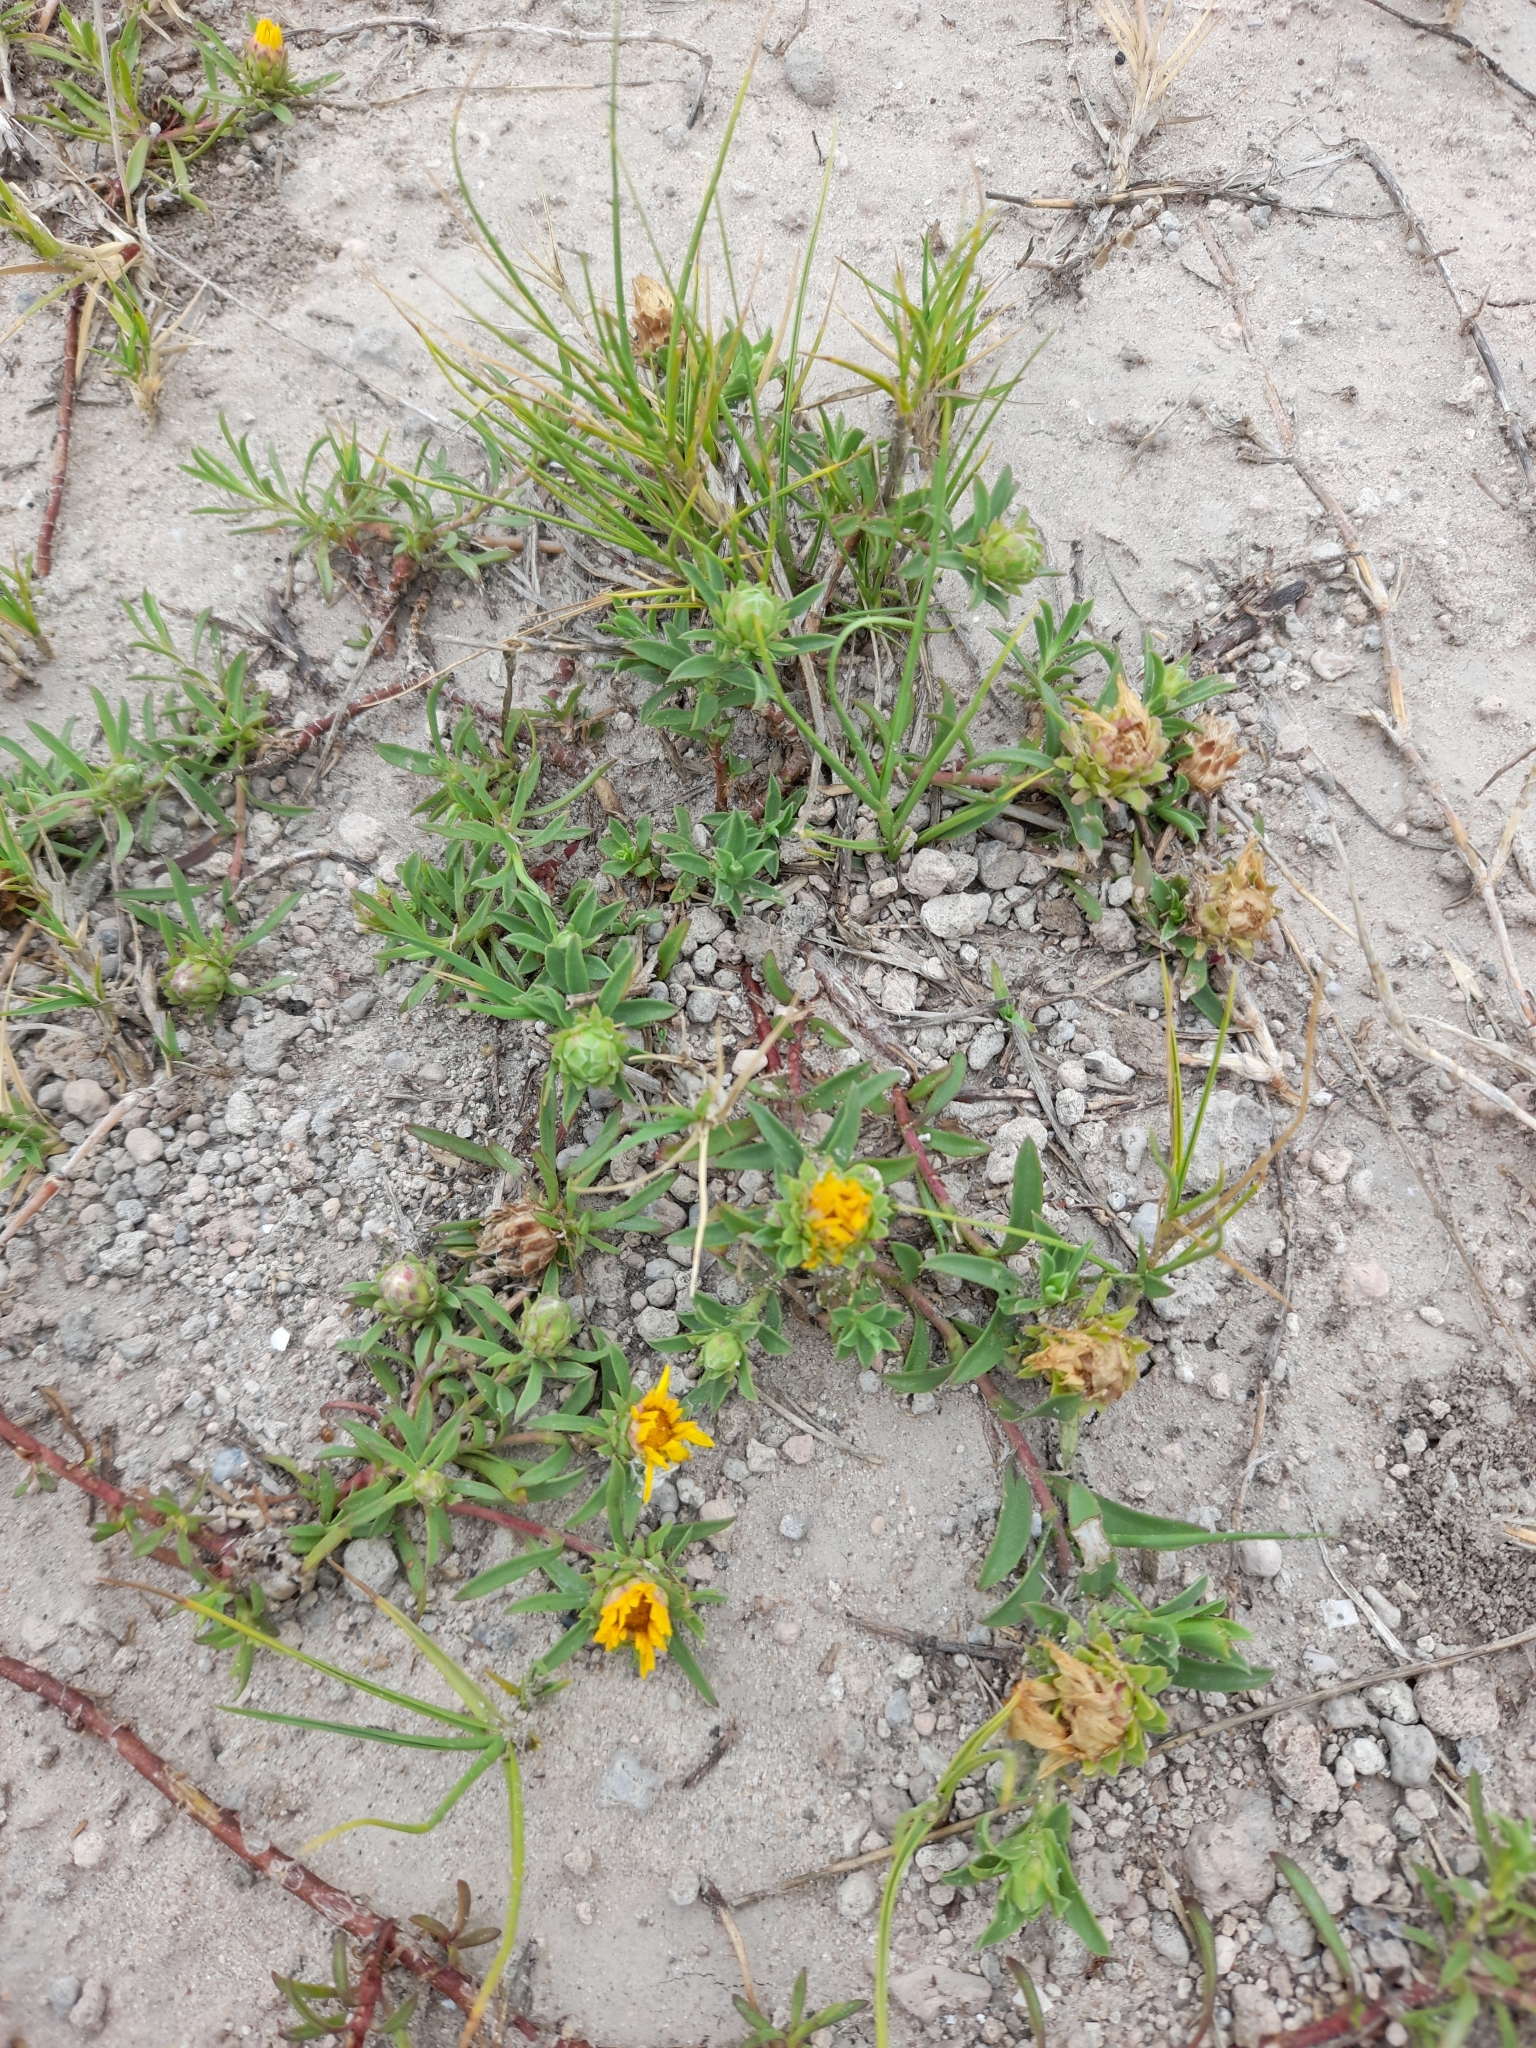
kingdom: Plantae
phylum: Tracheophyta
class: Magnoliopsida
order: Asterales
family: Asteraceae
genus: Grindelia
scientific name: Grindelia ragonesei
